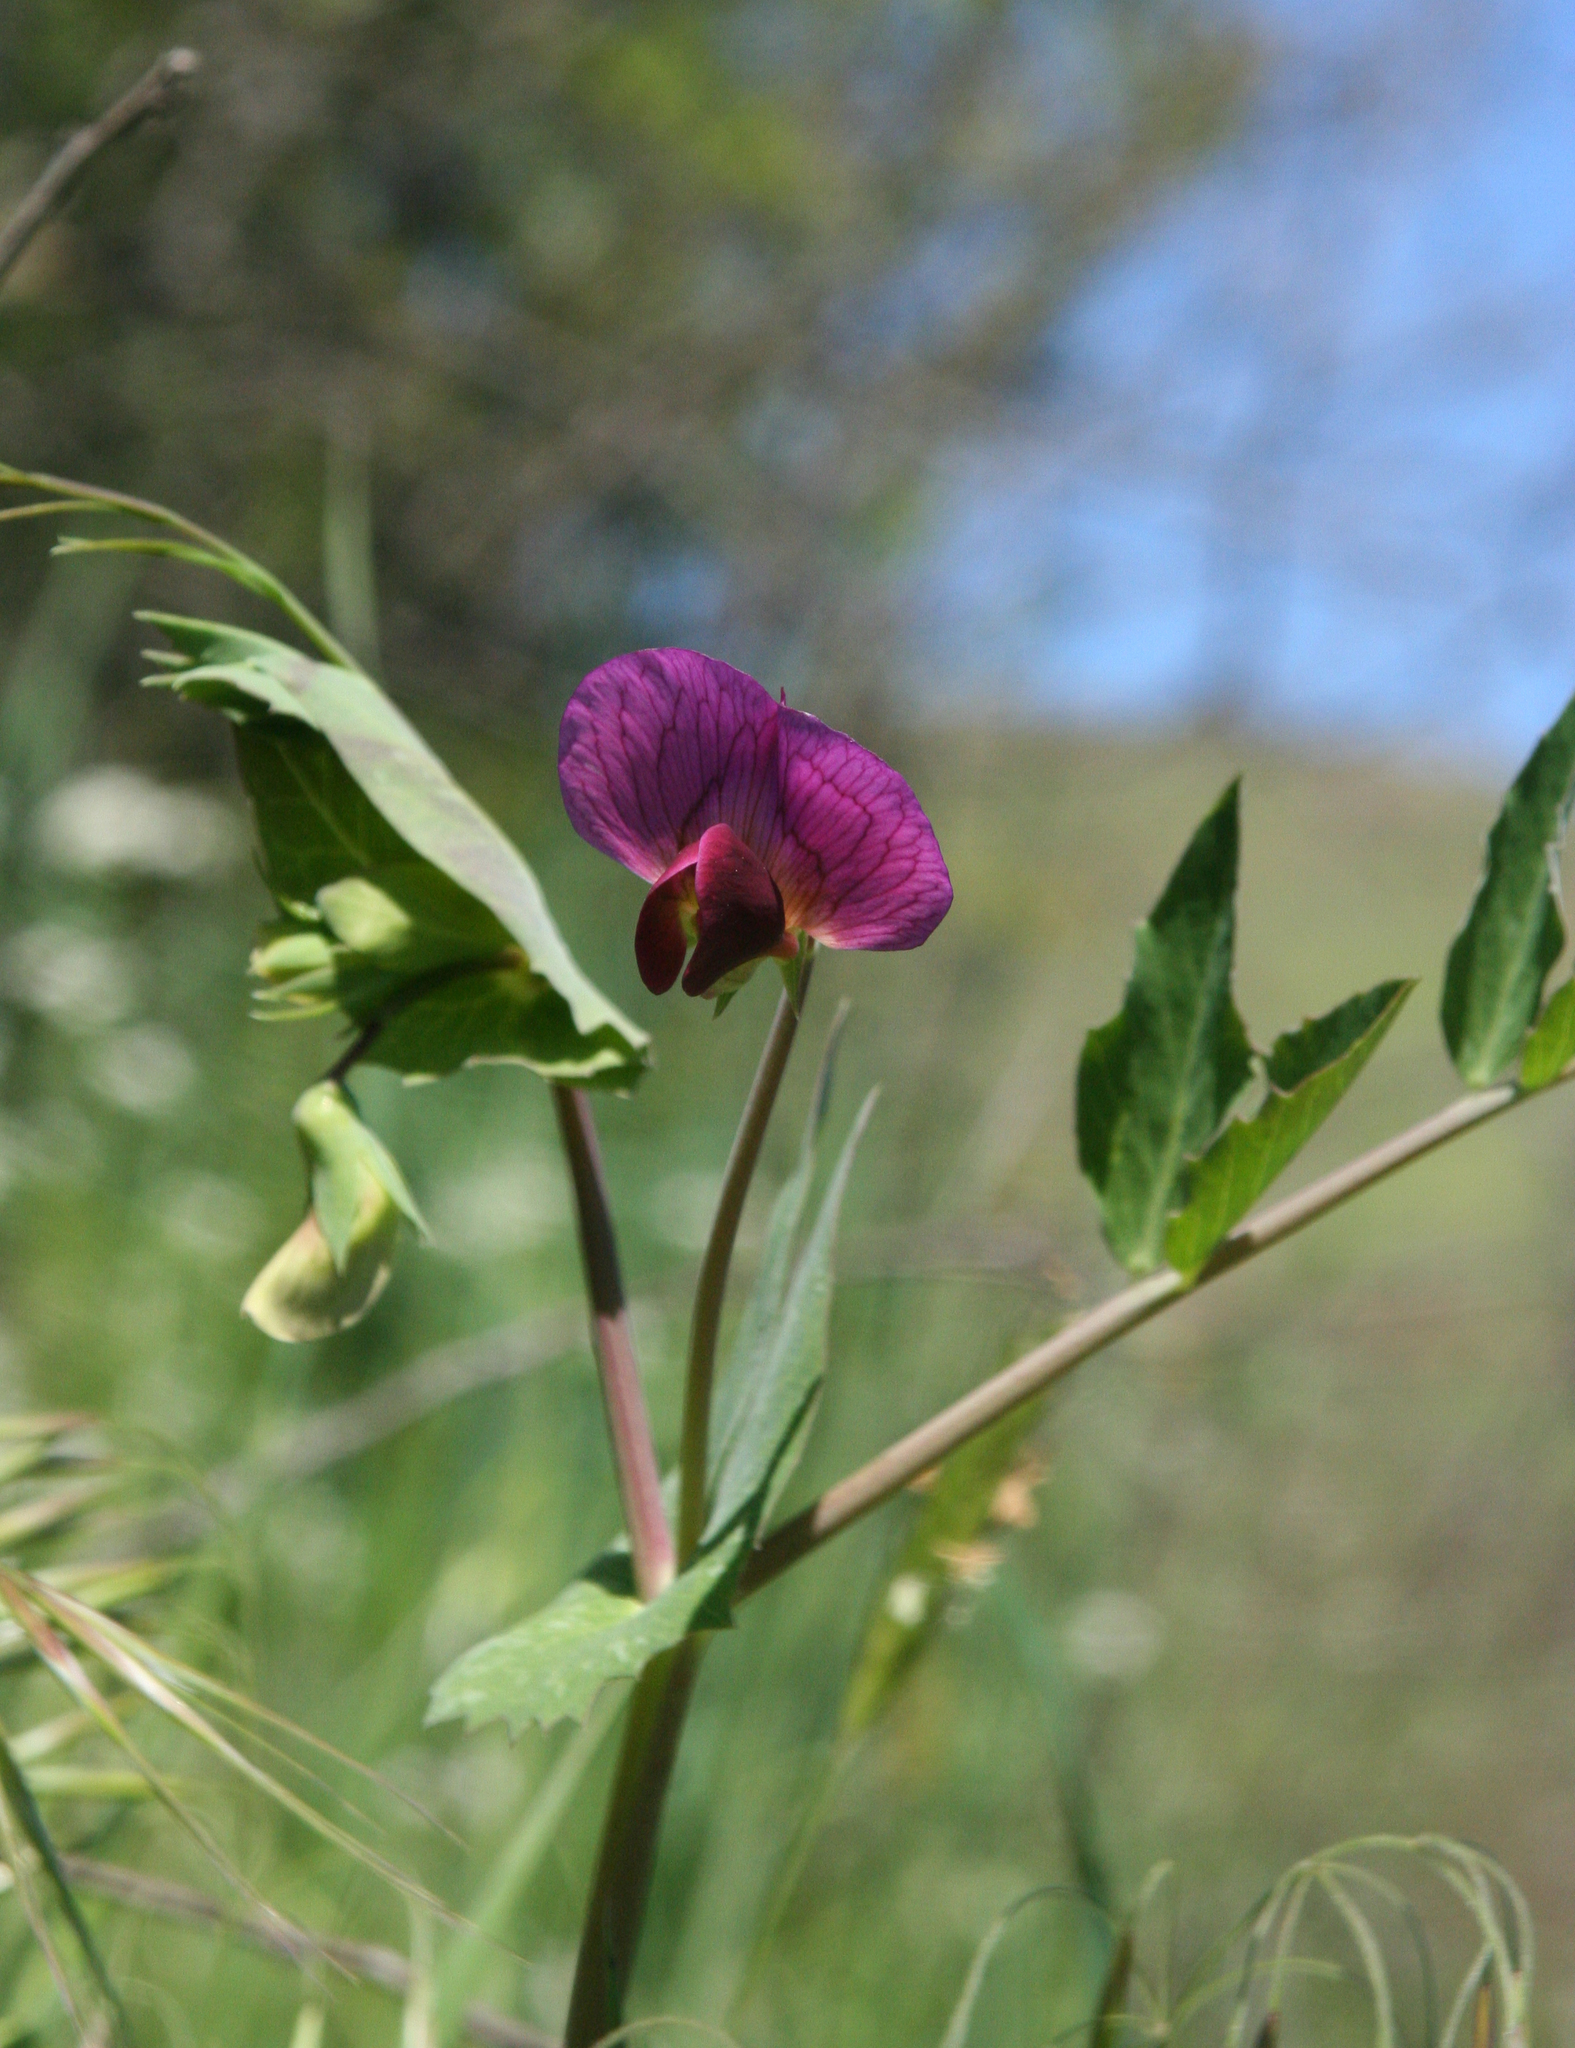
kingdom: Plantae
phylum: Tracheophyta
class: Magnoliopsida
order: Fabales
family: Fabaceae
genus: Lathyrus
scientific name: Lathyrus oleraceus
